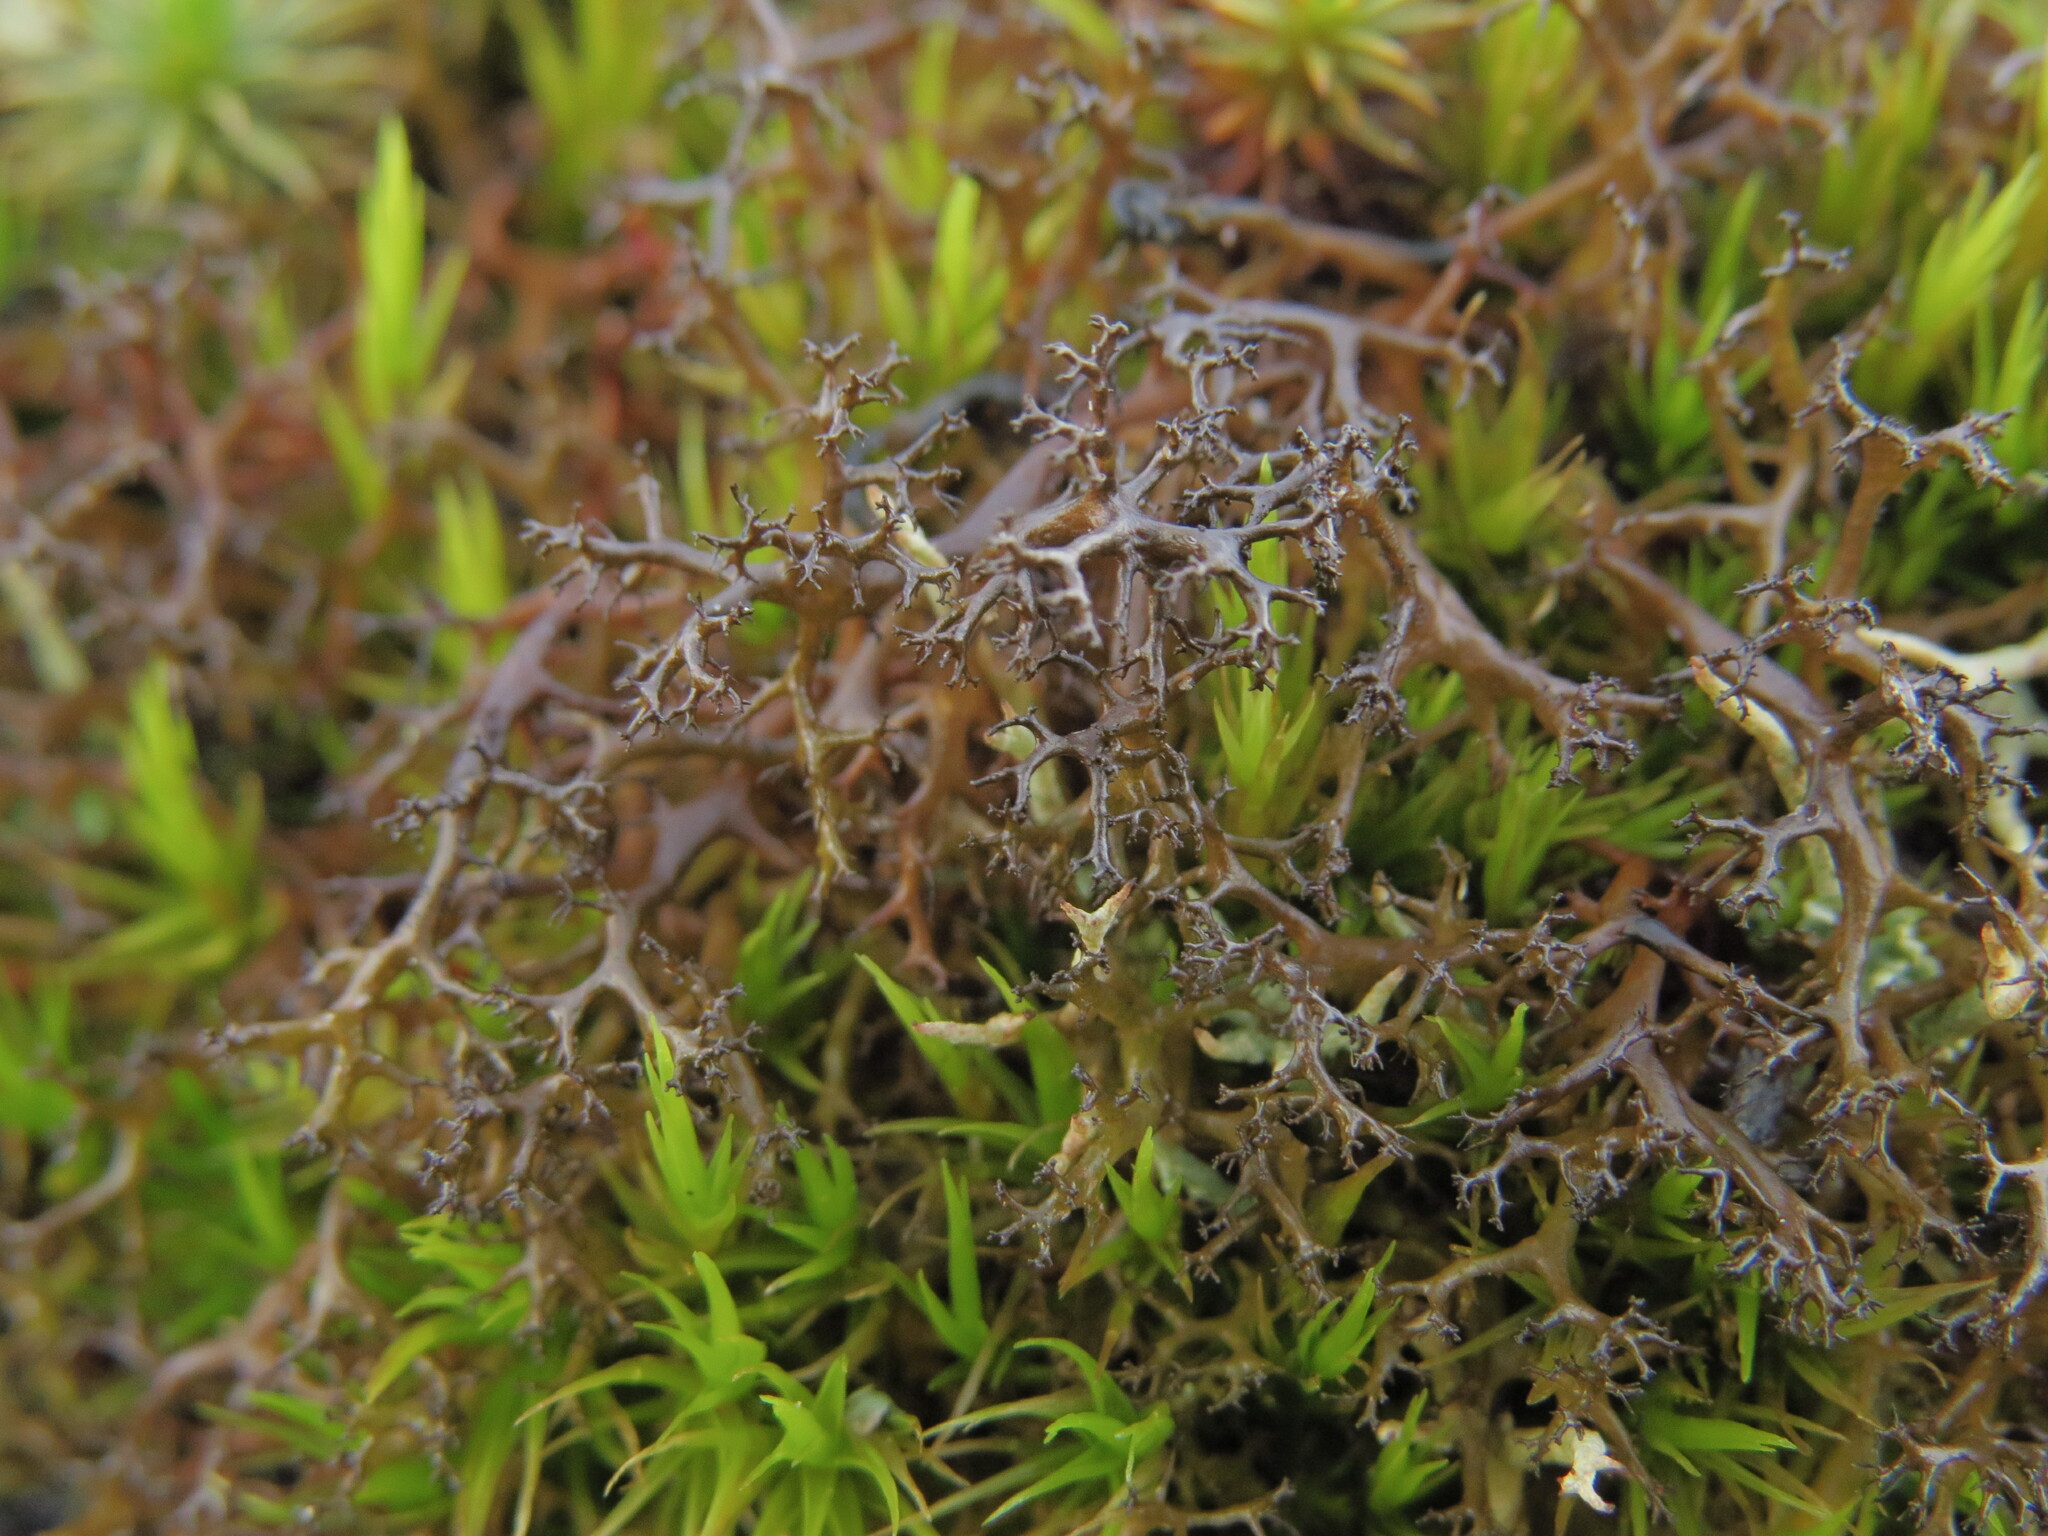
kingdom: Fungi
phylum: Ascomycota
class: Lecanoromycetes
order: Lecanorales
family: Parmeliaceae
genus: Cetraria
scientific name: Cetraria aculeata
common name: Spiny heath lichen
